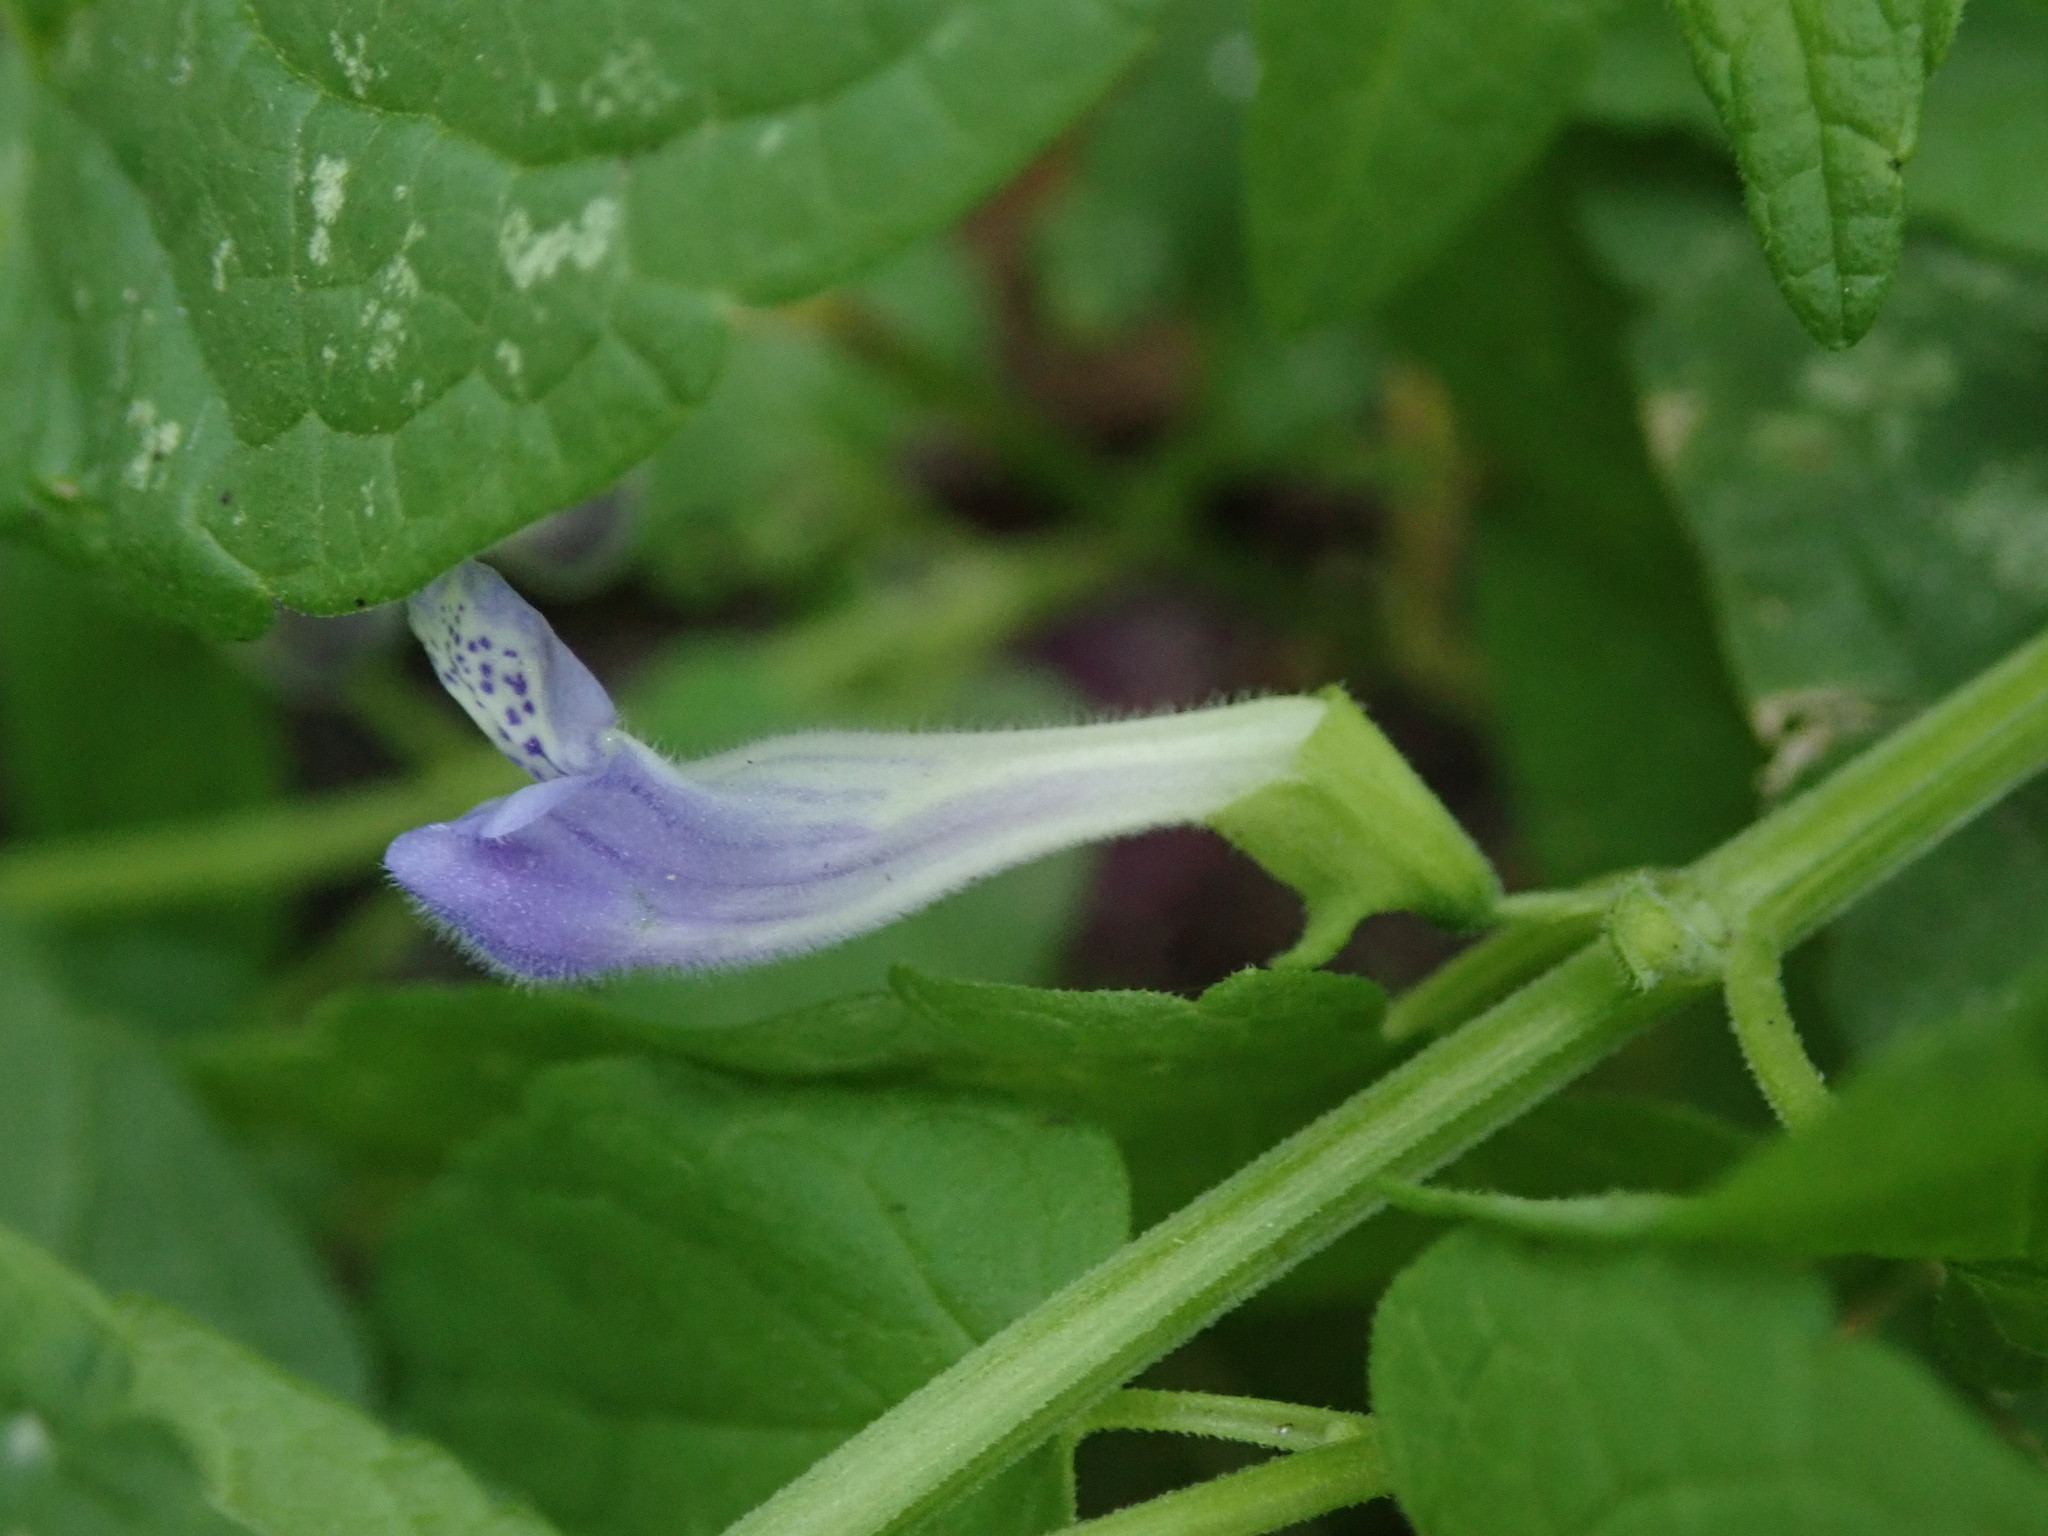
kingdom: Plantae
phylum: Tracheophyta
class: Magnoliopsida
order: Lamiales
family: Lamiaceae
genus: Scutellaria
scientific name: Scutellaria galericulata
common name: Skullcap
